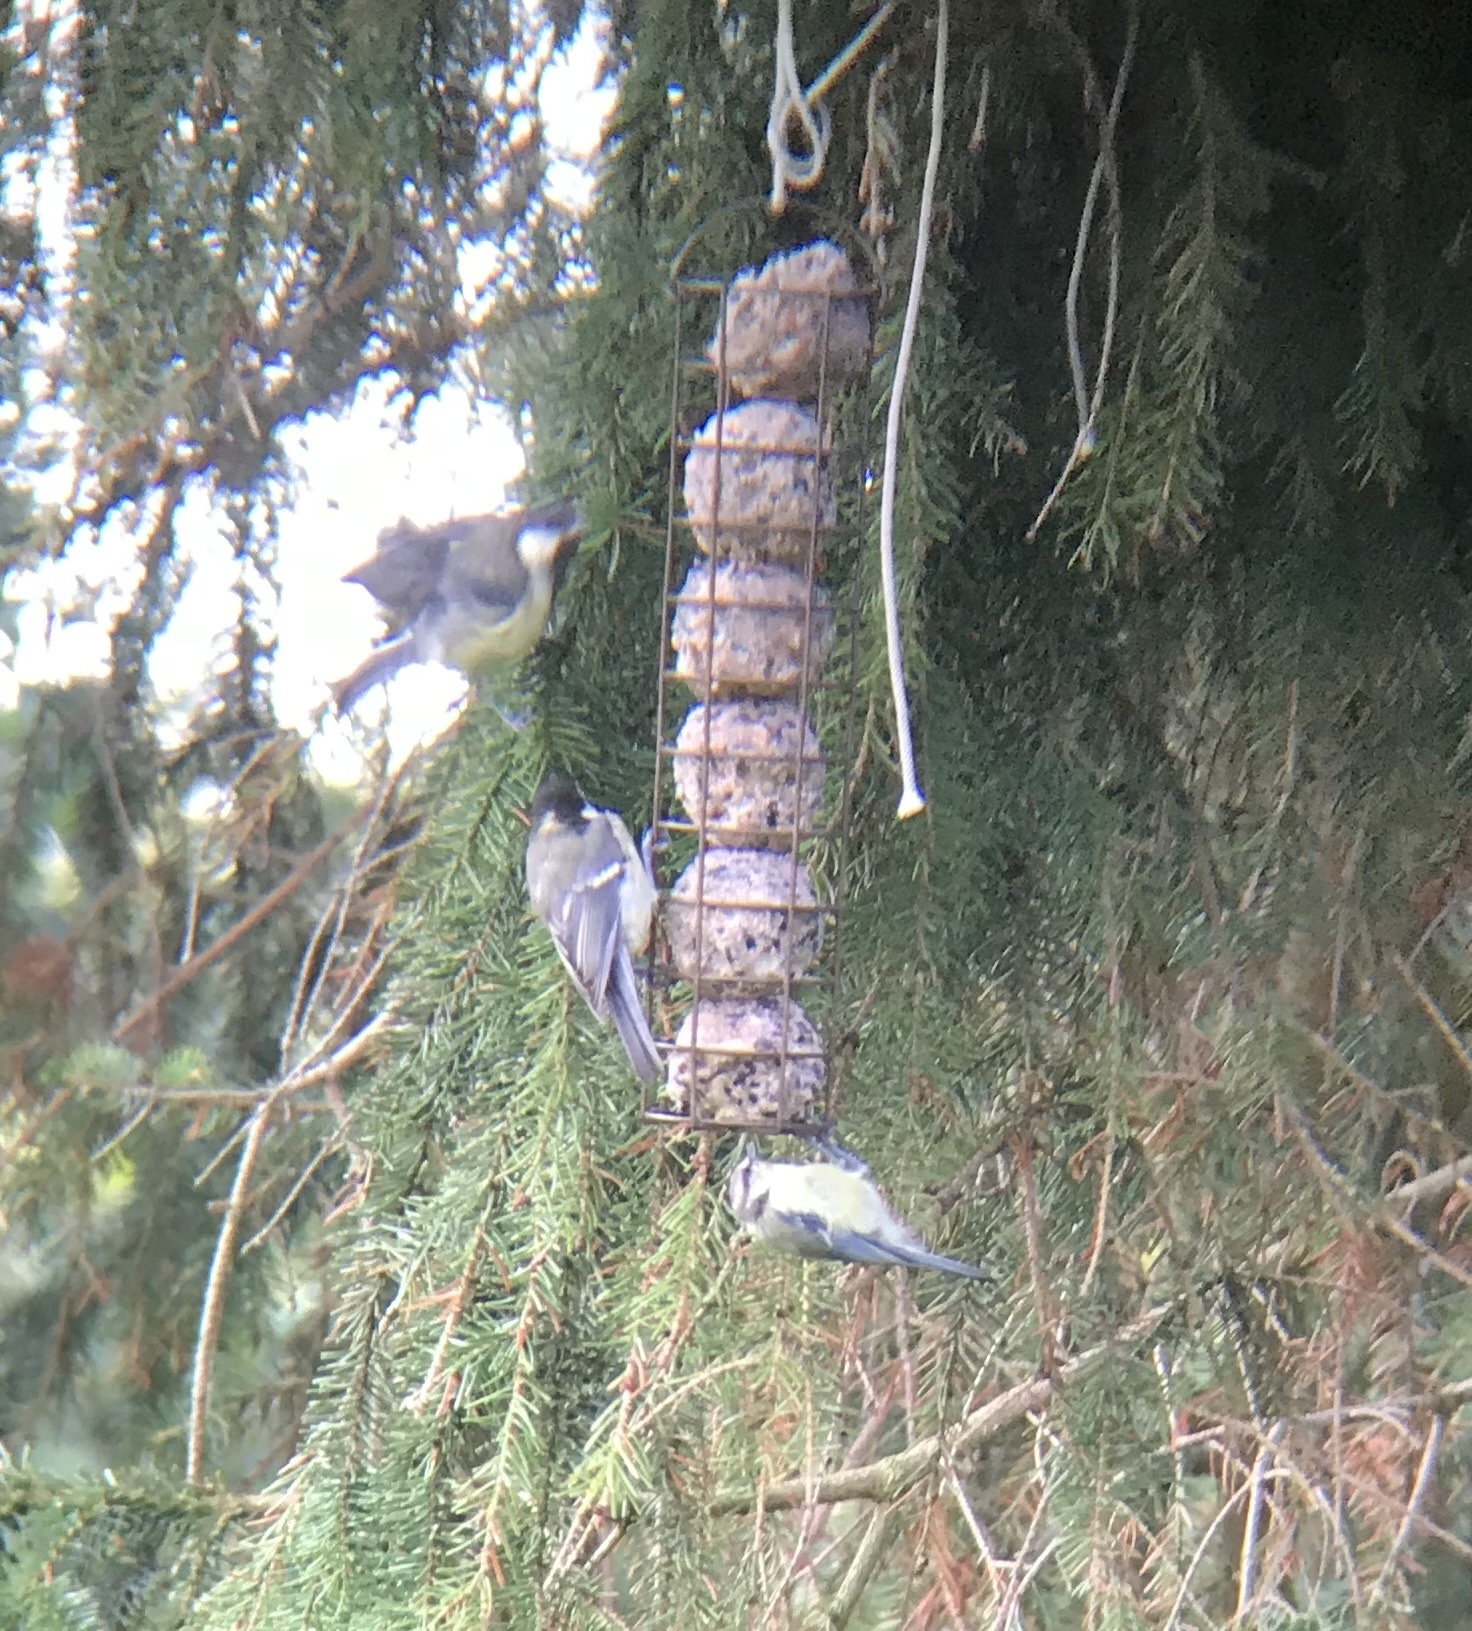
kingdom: Animalia
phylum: Chordata
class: Aves
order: Passeriformes
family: Paridae
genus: Parus
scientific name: Parus major
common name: Great tit
